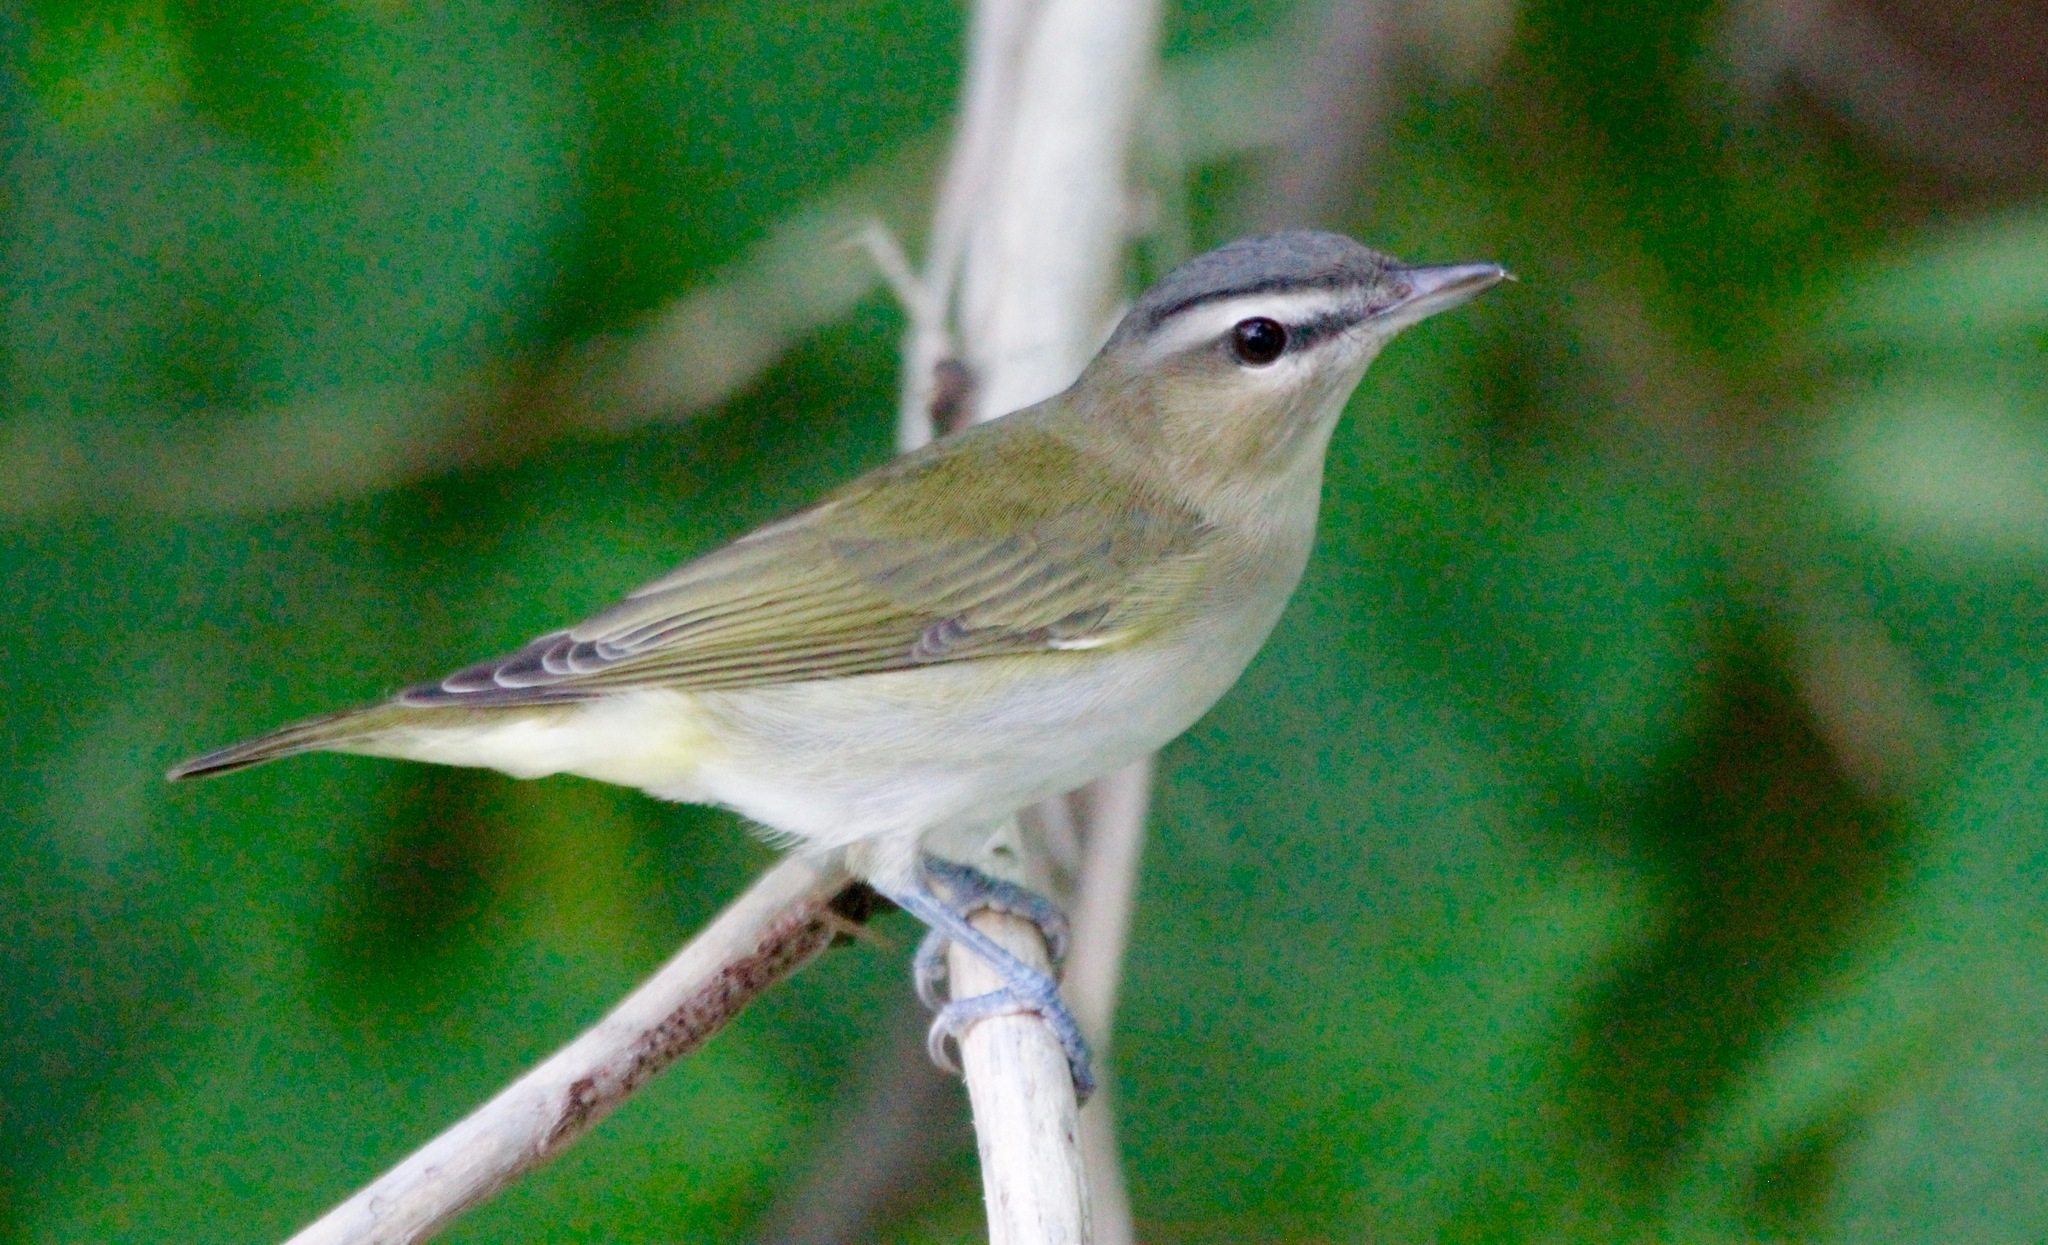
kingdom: Animalia
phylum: Chordata
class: Aves
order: Passeriformes
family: Vireonidae
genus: Vireo
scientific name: Vireo olivaceus
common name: Red-eyed vireo
